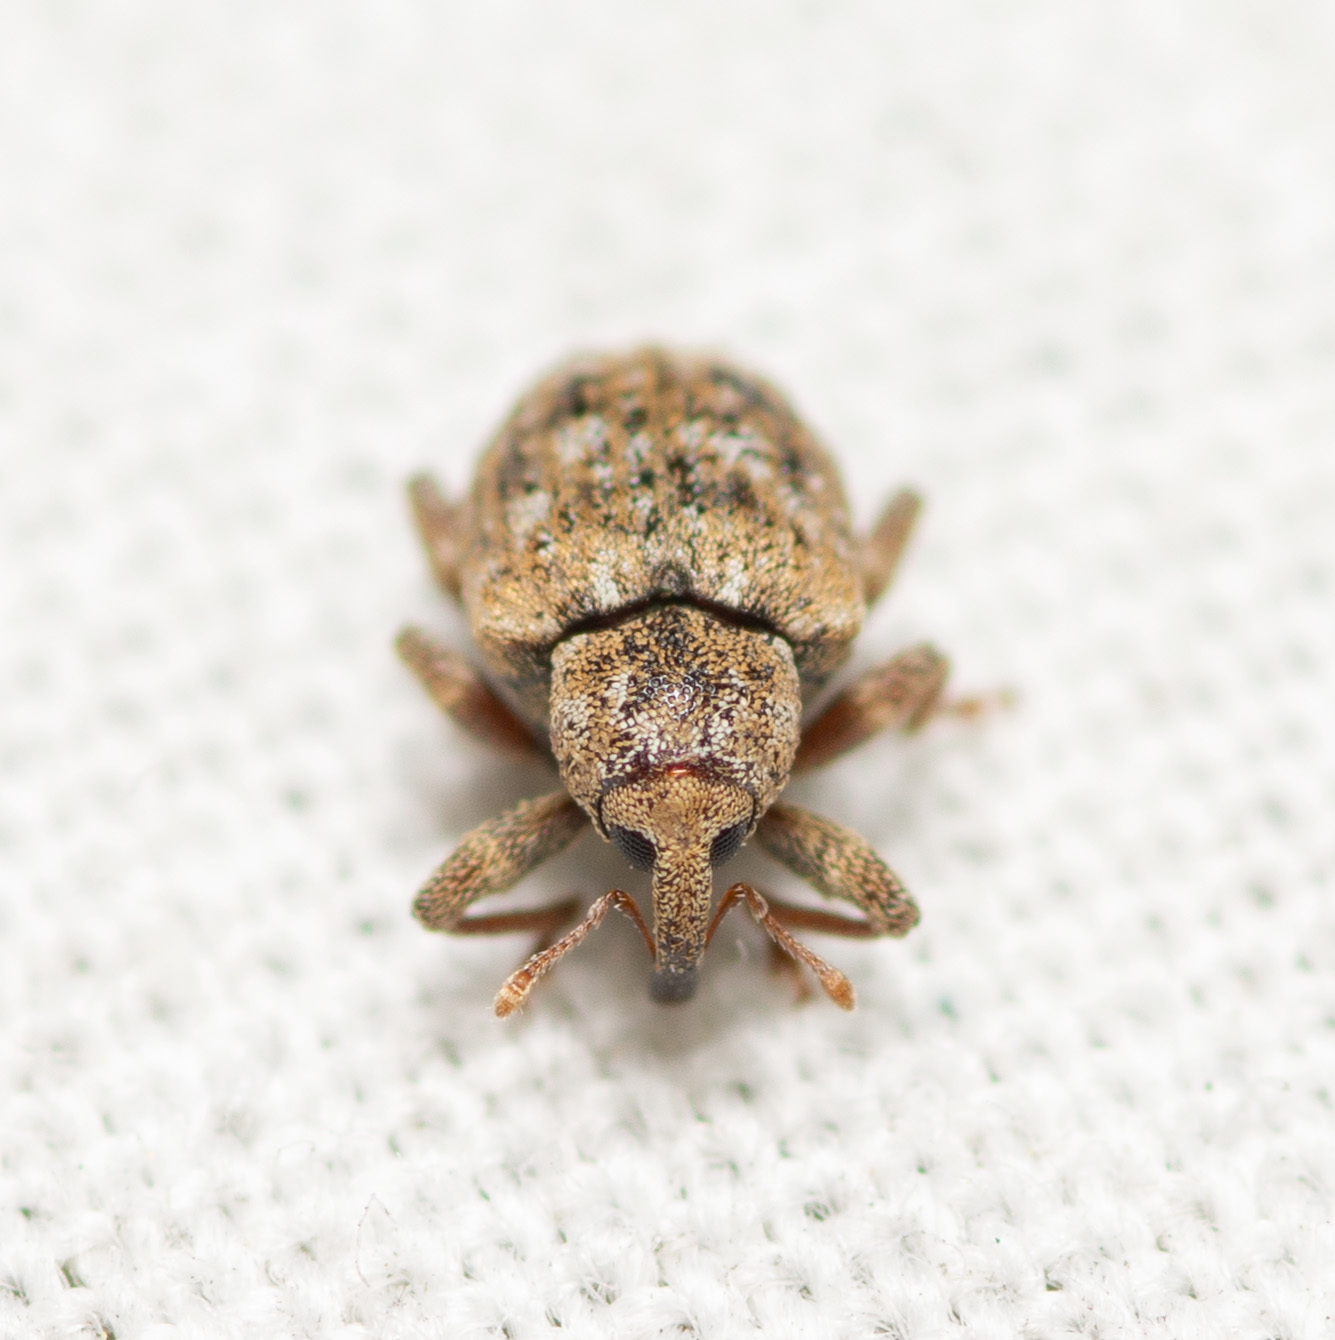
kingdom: Animalia
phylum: Arthropoda
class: Insecta
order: Coleoptera
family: Curculionidae
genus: Conotrachelus
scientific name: Conotrachelus recessus
